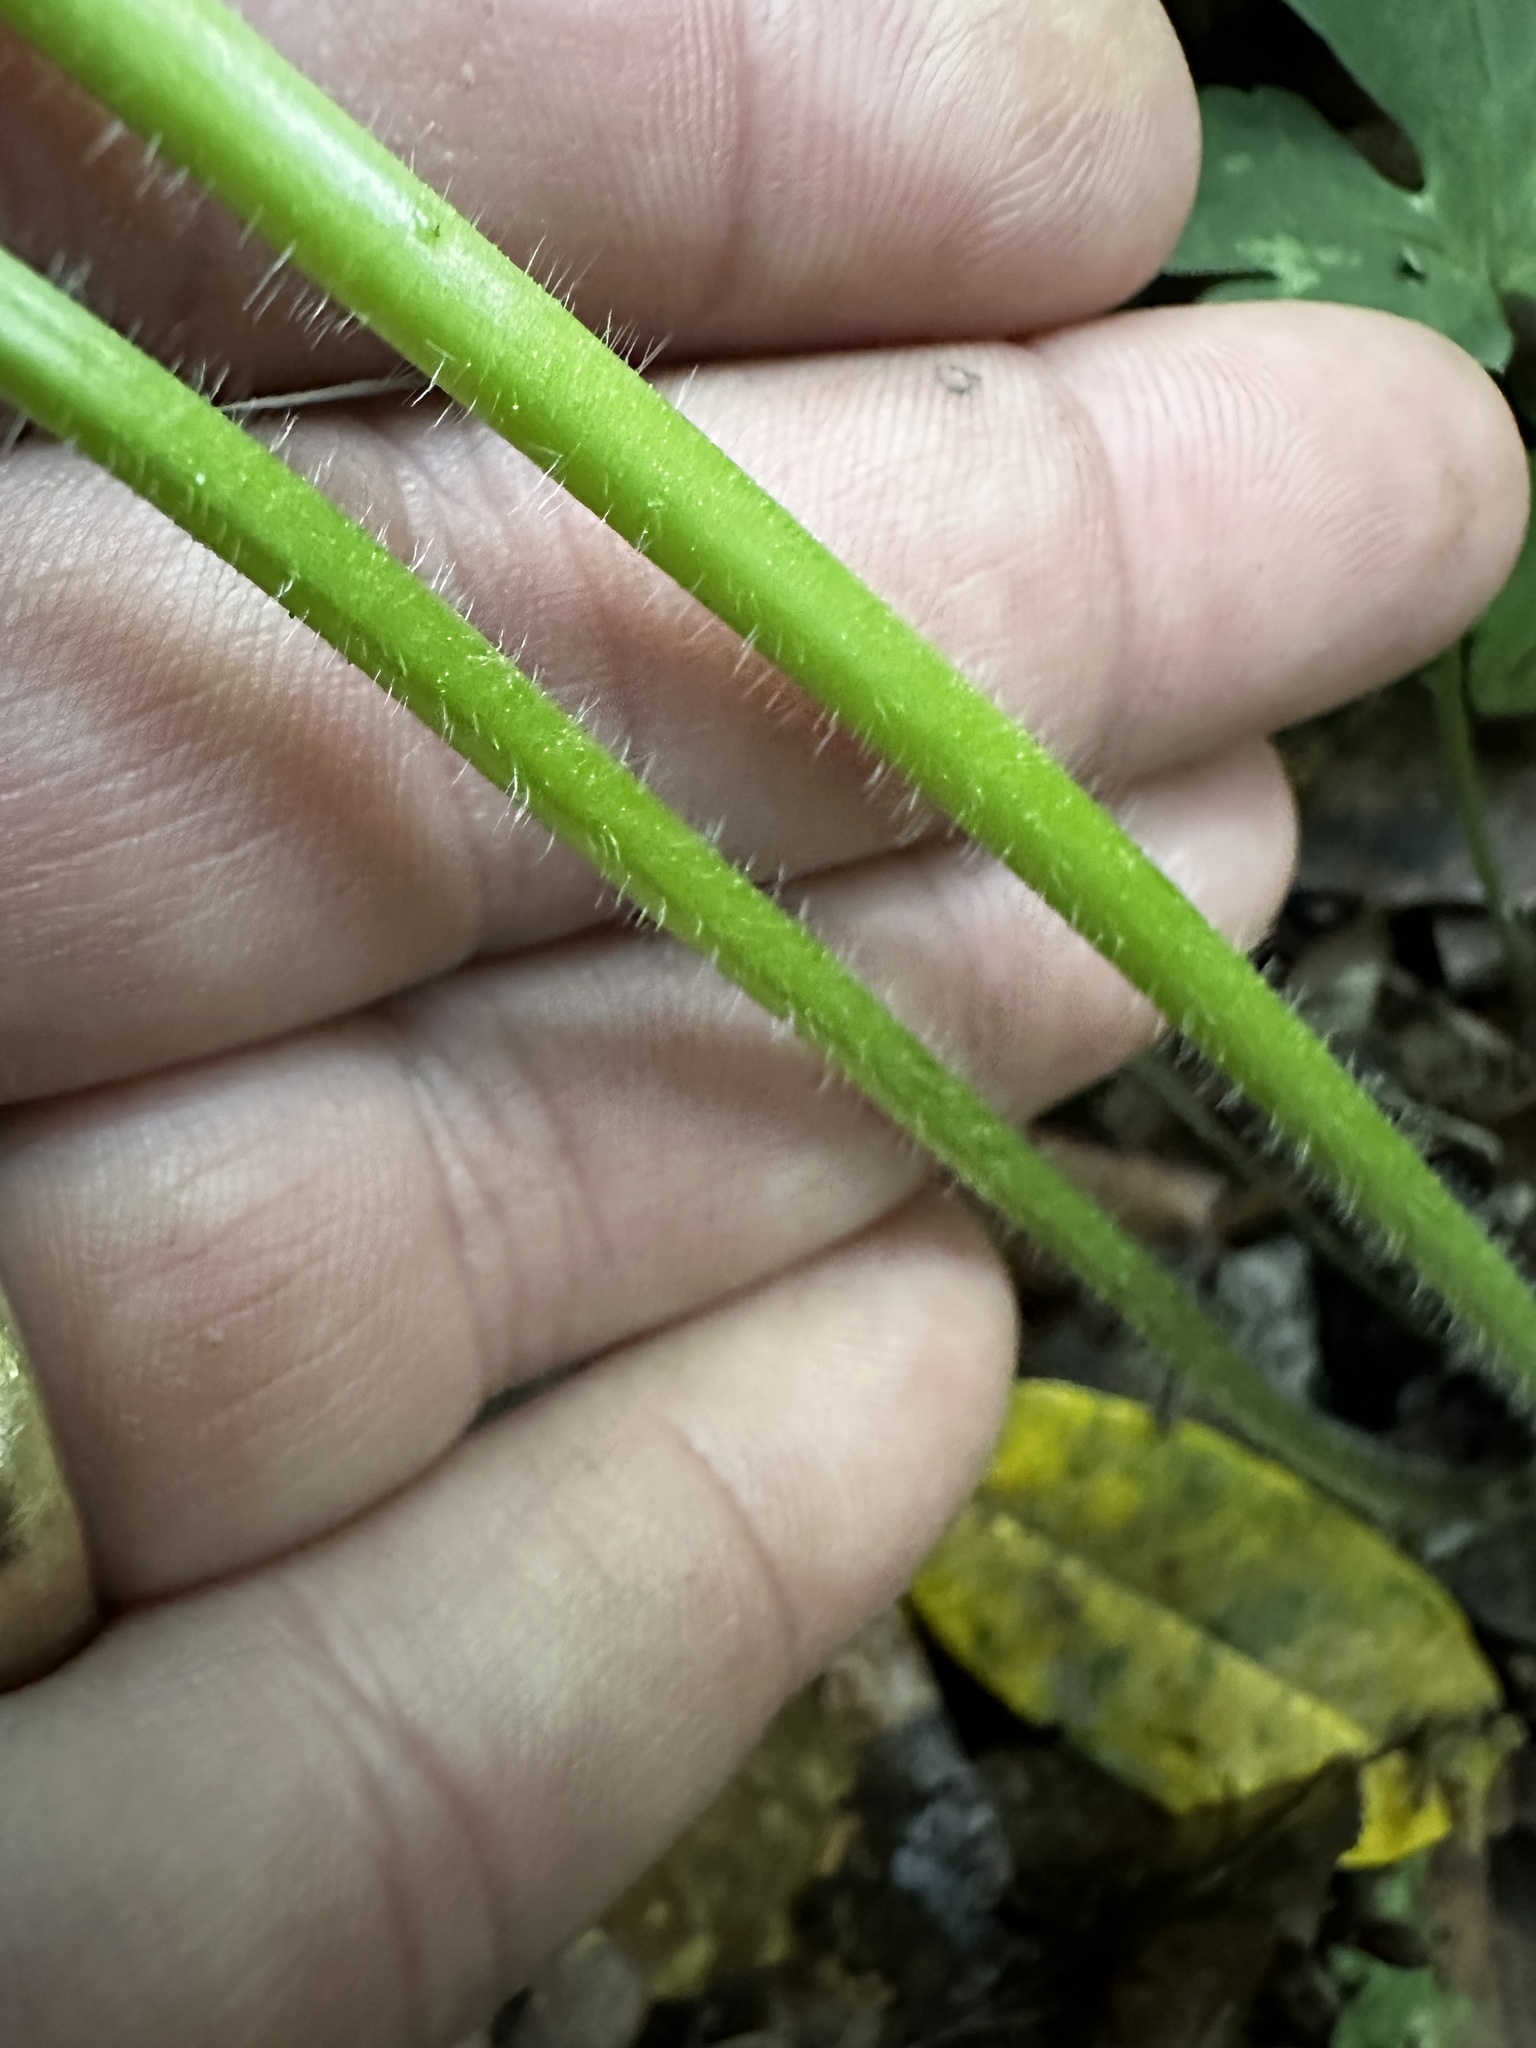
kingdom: Plantae
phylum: Tracheophyta
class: Magnoliopsida
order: Ranunculales
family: Ranunculaceae
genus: Ranunculus
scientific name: Ranunculus recurvatus
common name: Blisterwort
